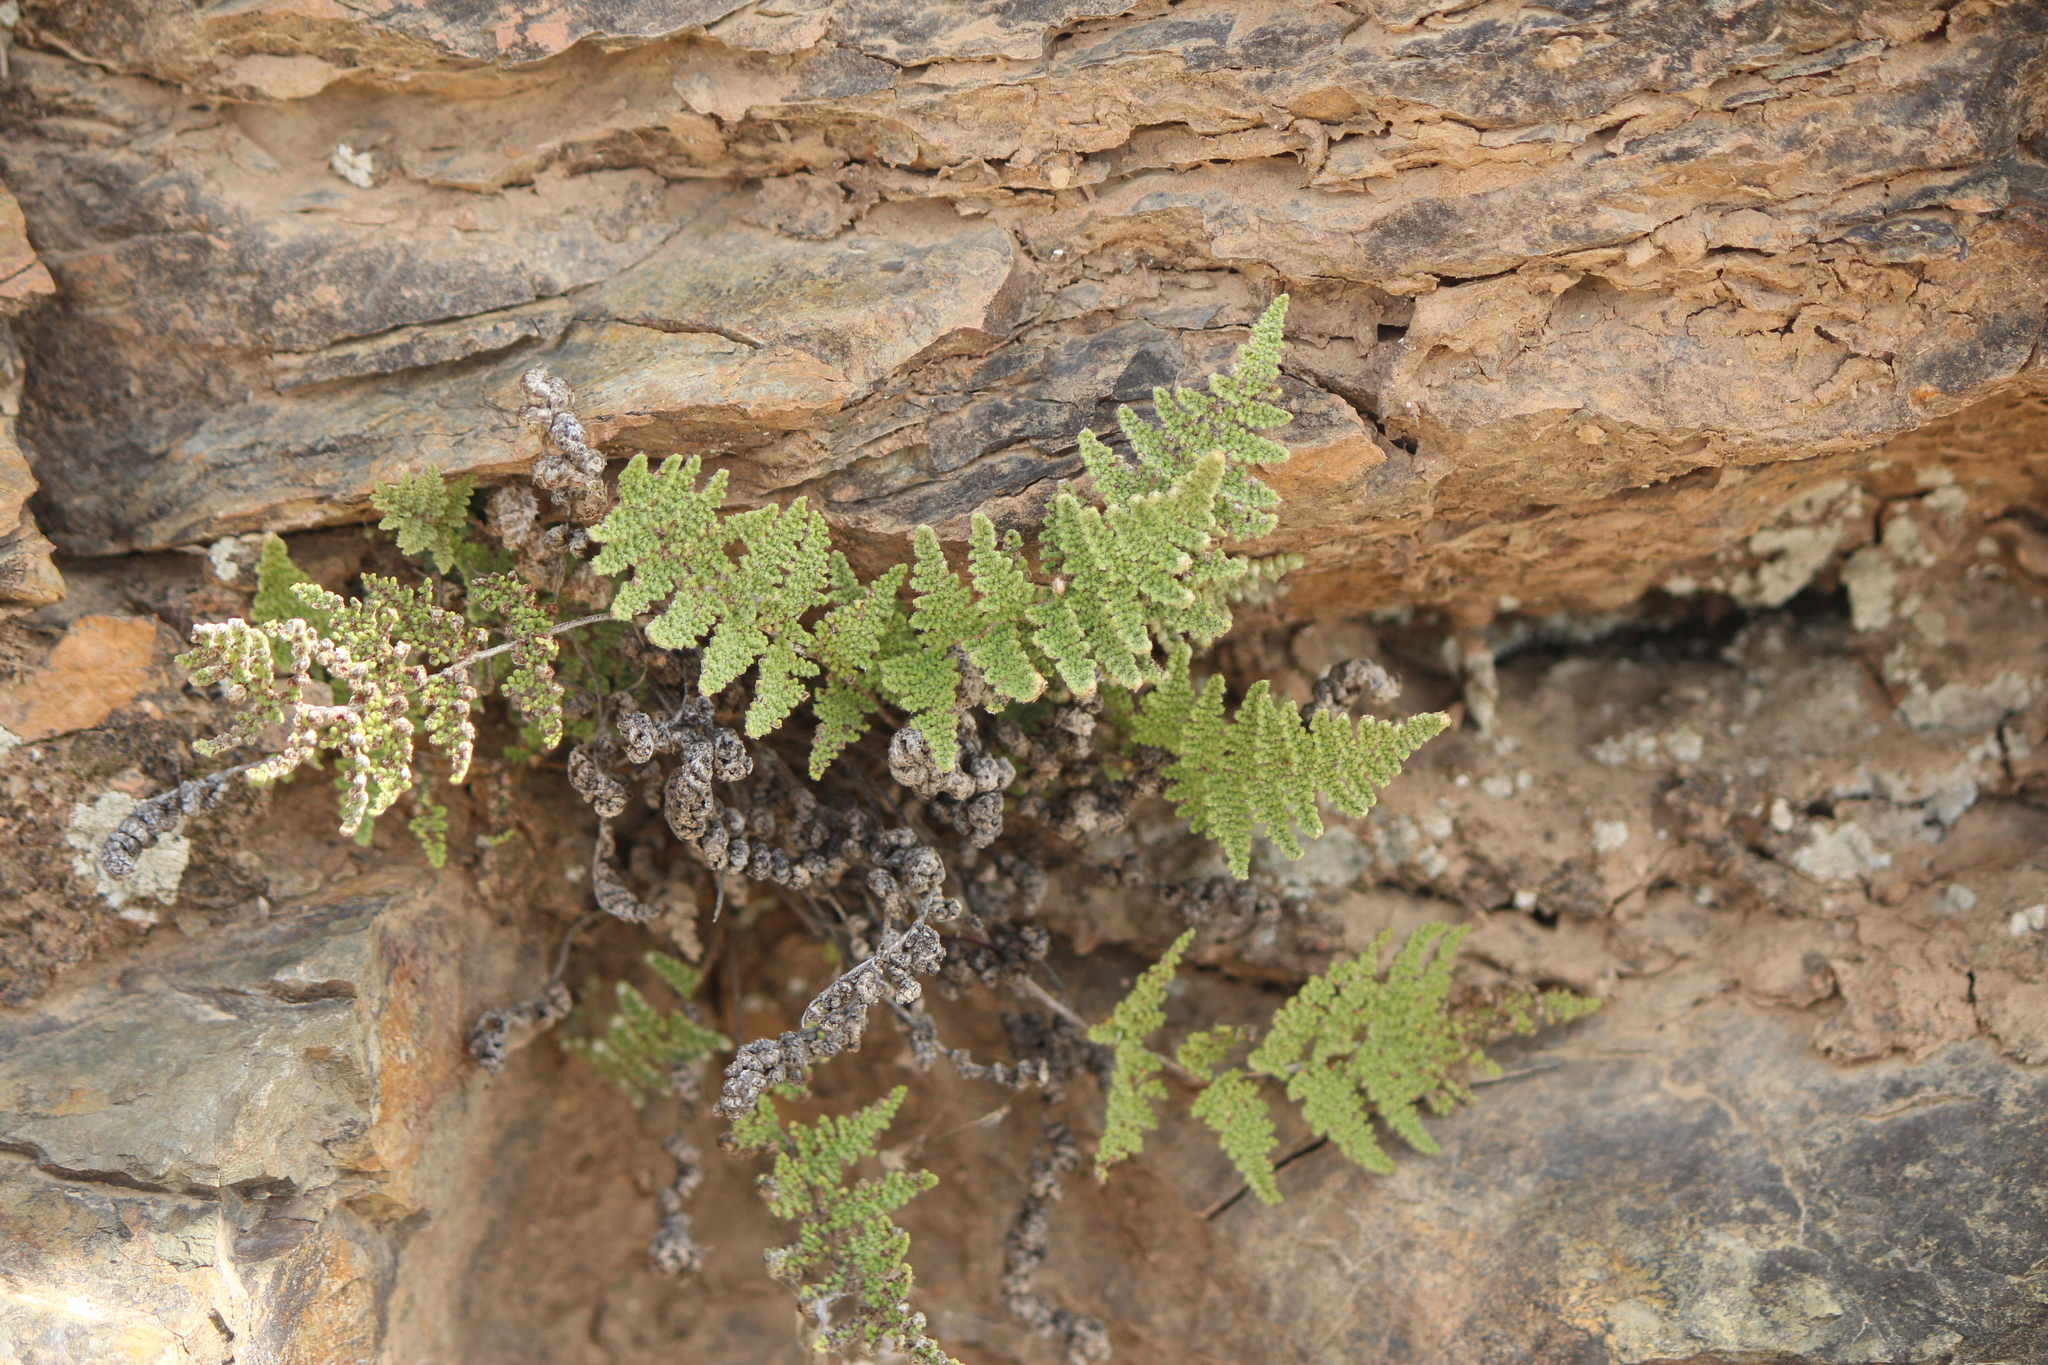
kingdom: Plantae
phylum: Tracheophyta
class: Polypodiopsida
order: Polypodiales
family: Pteridaceae
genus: Myriopteris
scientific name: Myriopteris myriophylla
